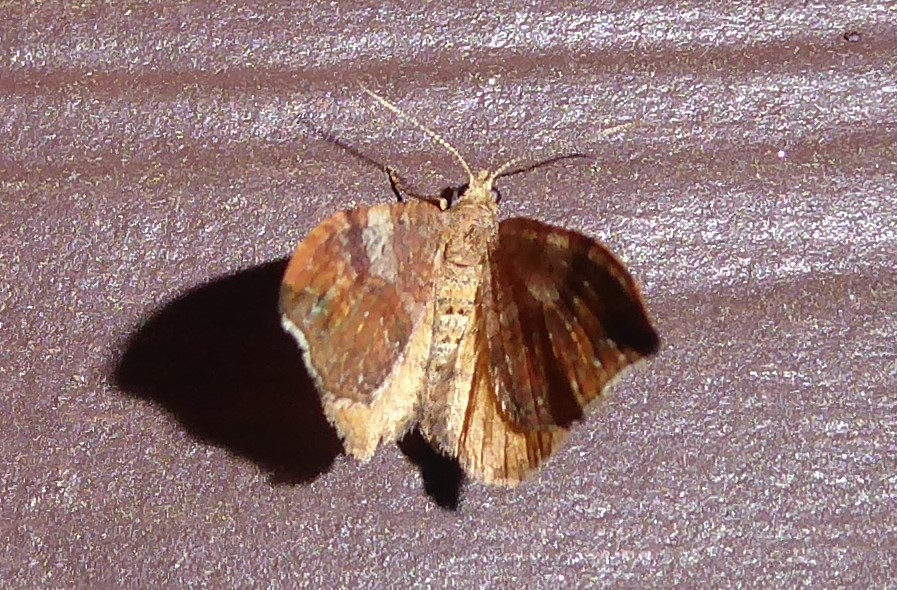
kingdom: Animalia
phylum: Arthropoda
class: Insecta
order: Lepidoptera
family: Geometridae
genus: Homodotis
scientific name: Homodotis megaspilata
